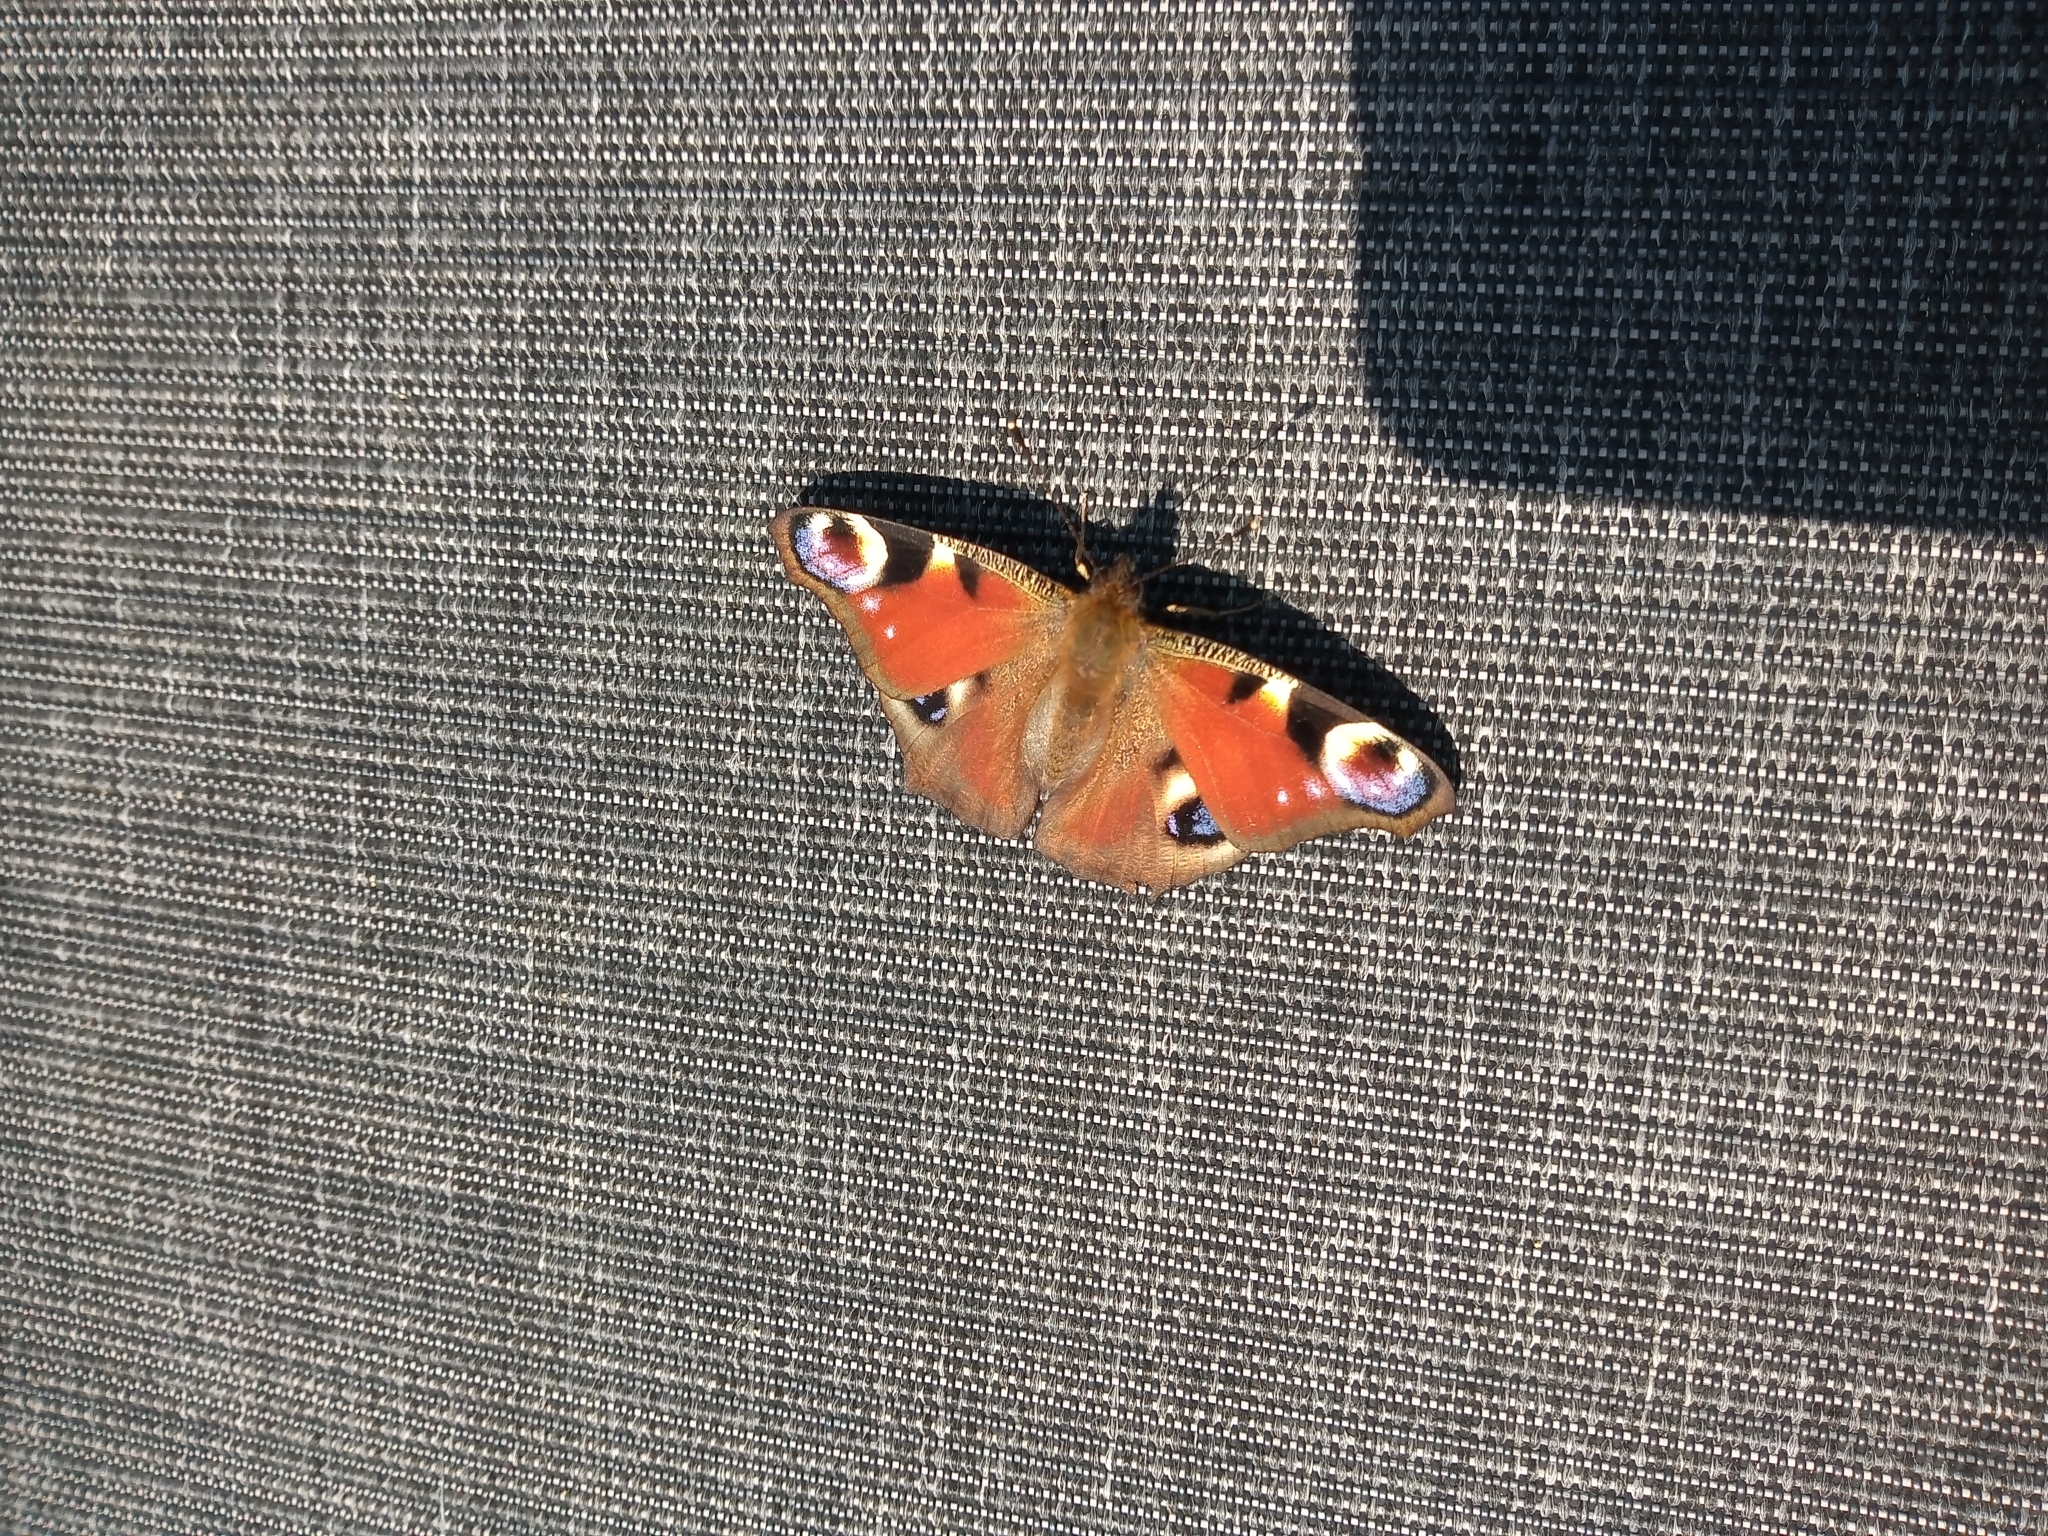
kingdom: Animalia
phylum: Arthropoda
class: Insecta
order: Lepidoptera
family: Nymphalidae
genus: Aglais
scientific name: Aglais io
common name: Peacock
